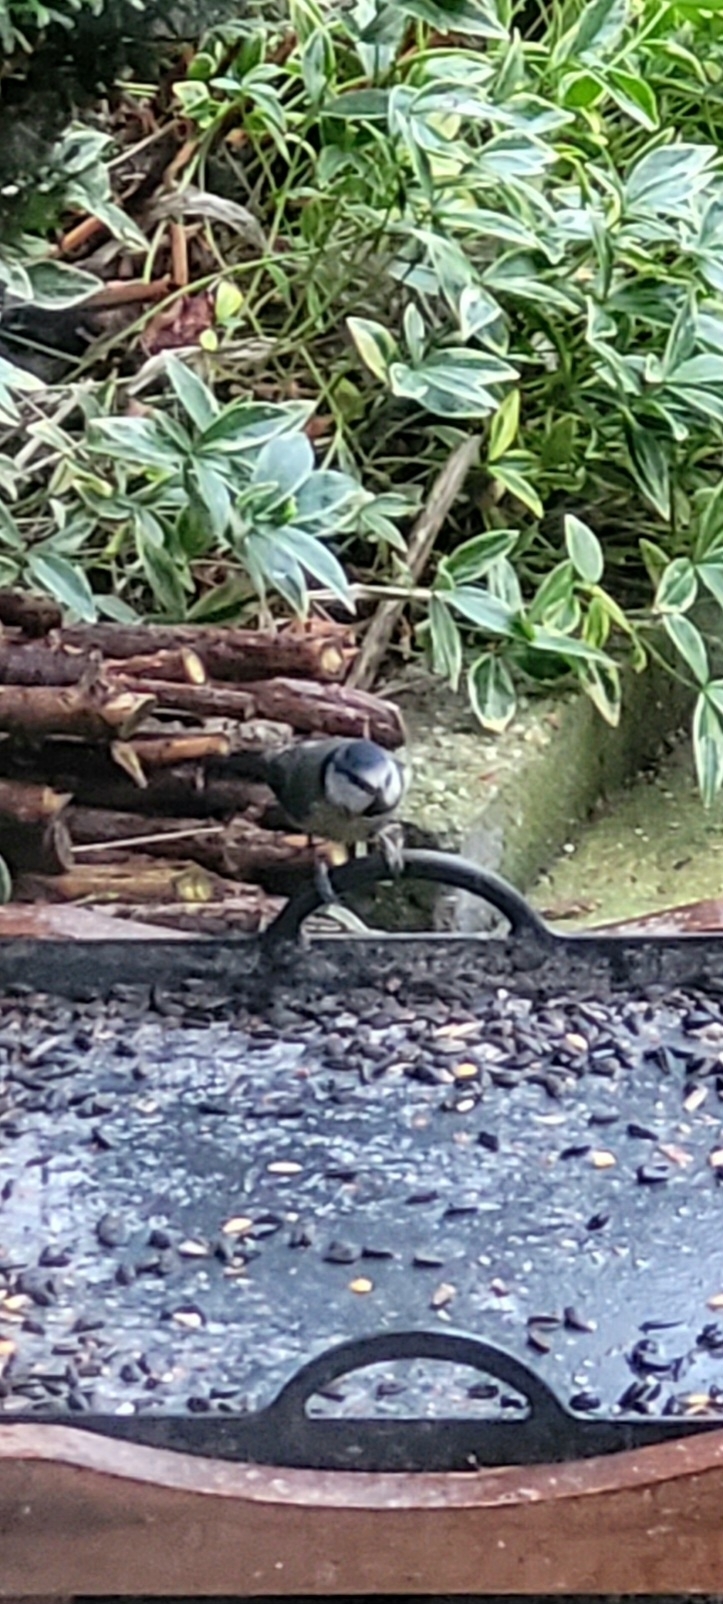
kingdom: Animalia
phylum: Chordata
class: Aves
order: Passeriformes
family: Paridae
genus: Cyanistes
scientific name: Cyanistes caeruleus
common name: Eurasian blue tit
